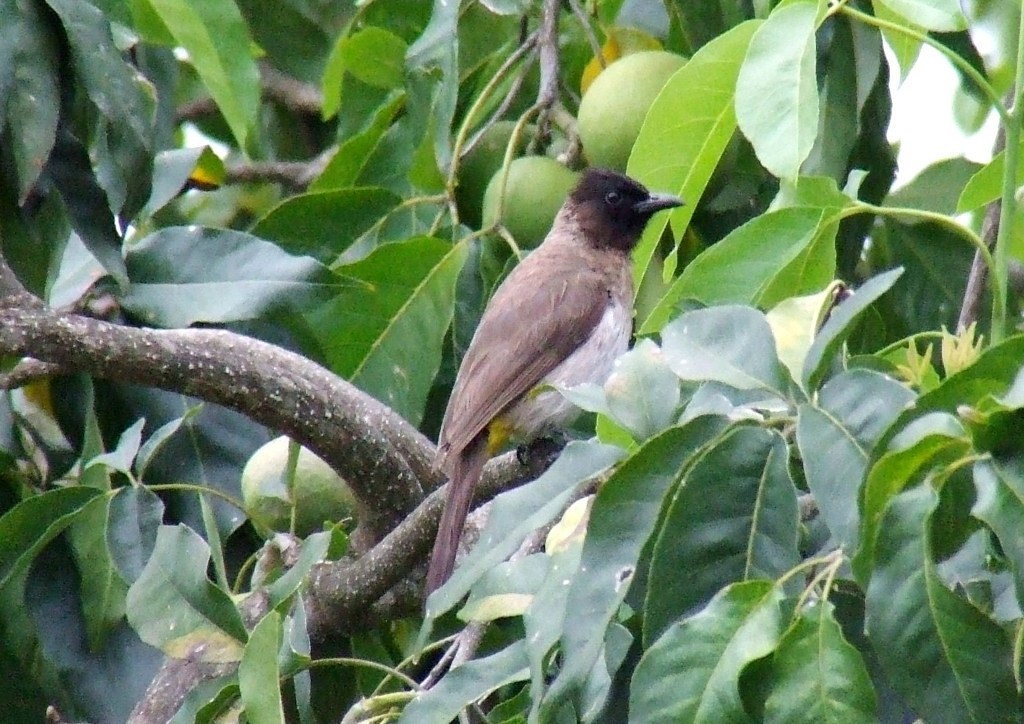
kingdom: Animalia
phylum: Chordata
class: Aves
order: Passeriformes
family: Pycnonotidae
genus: Pycnonotus
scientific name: Pycnonotus barbatus
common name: Common bulbul
